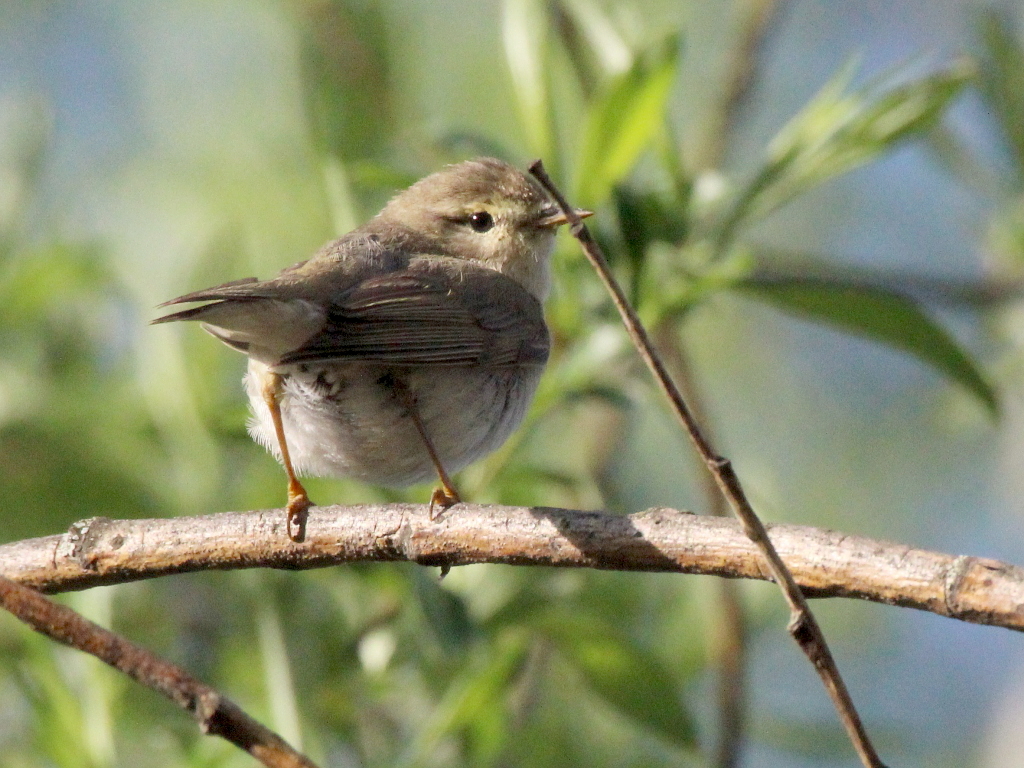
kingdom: Animalia
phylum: Chordata
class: Aves
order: Passeriformes
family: Phylloscopidae
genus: Phylloscopus
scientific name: Phylloscopus trochilus
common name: Willow warbler
